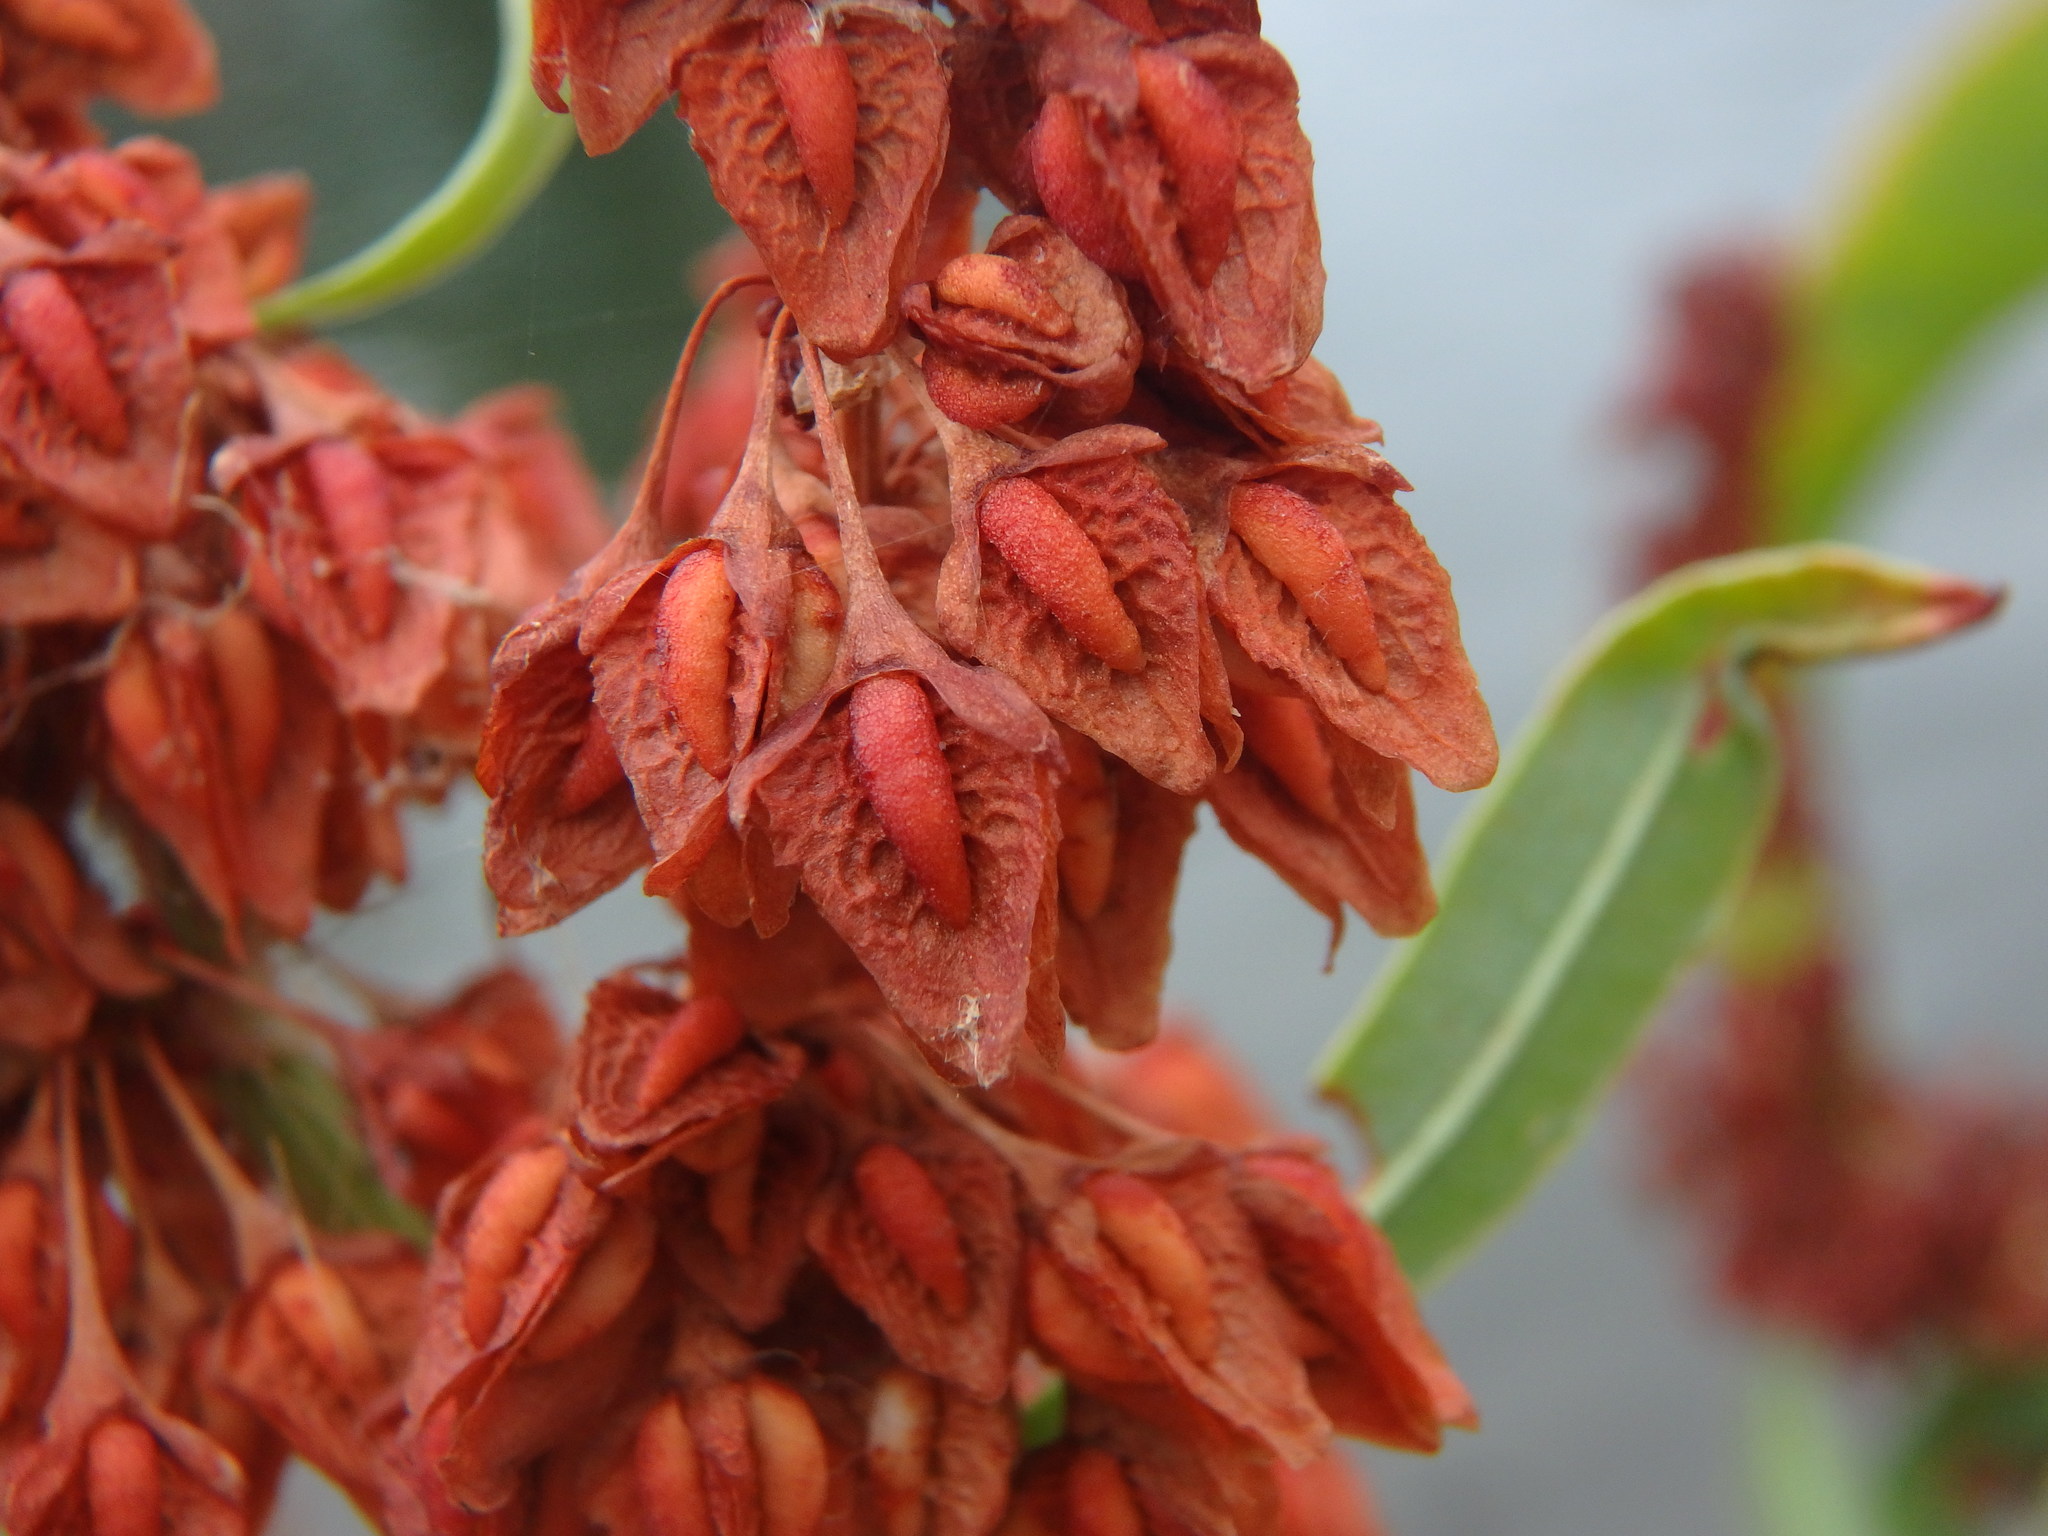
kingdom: Plantae
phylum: Tracheophyta
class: Magnoliopsida
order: Caryophyllales
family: Polygonaceae
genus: Rumex
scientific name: Rumex hydrolapathum
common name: Water dock
